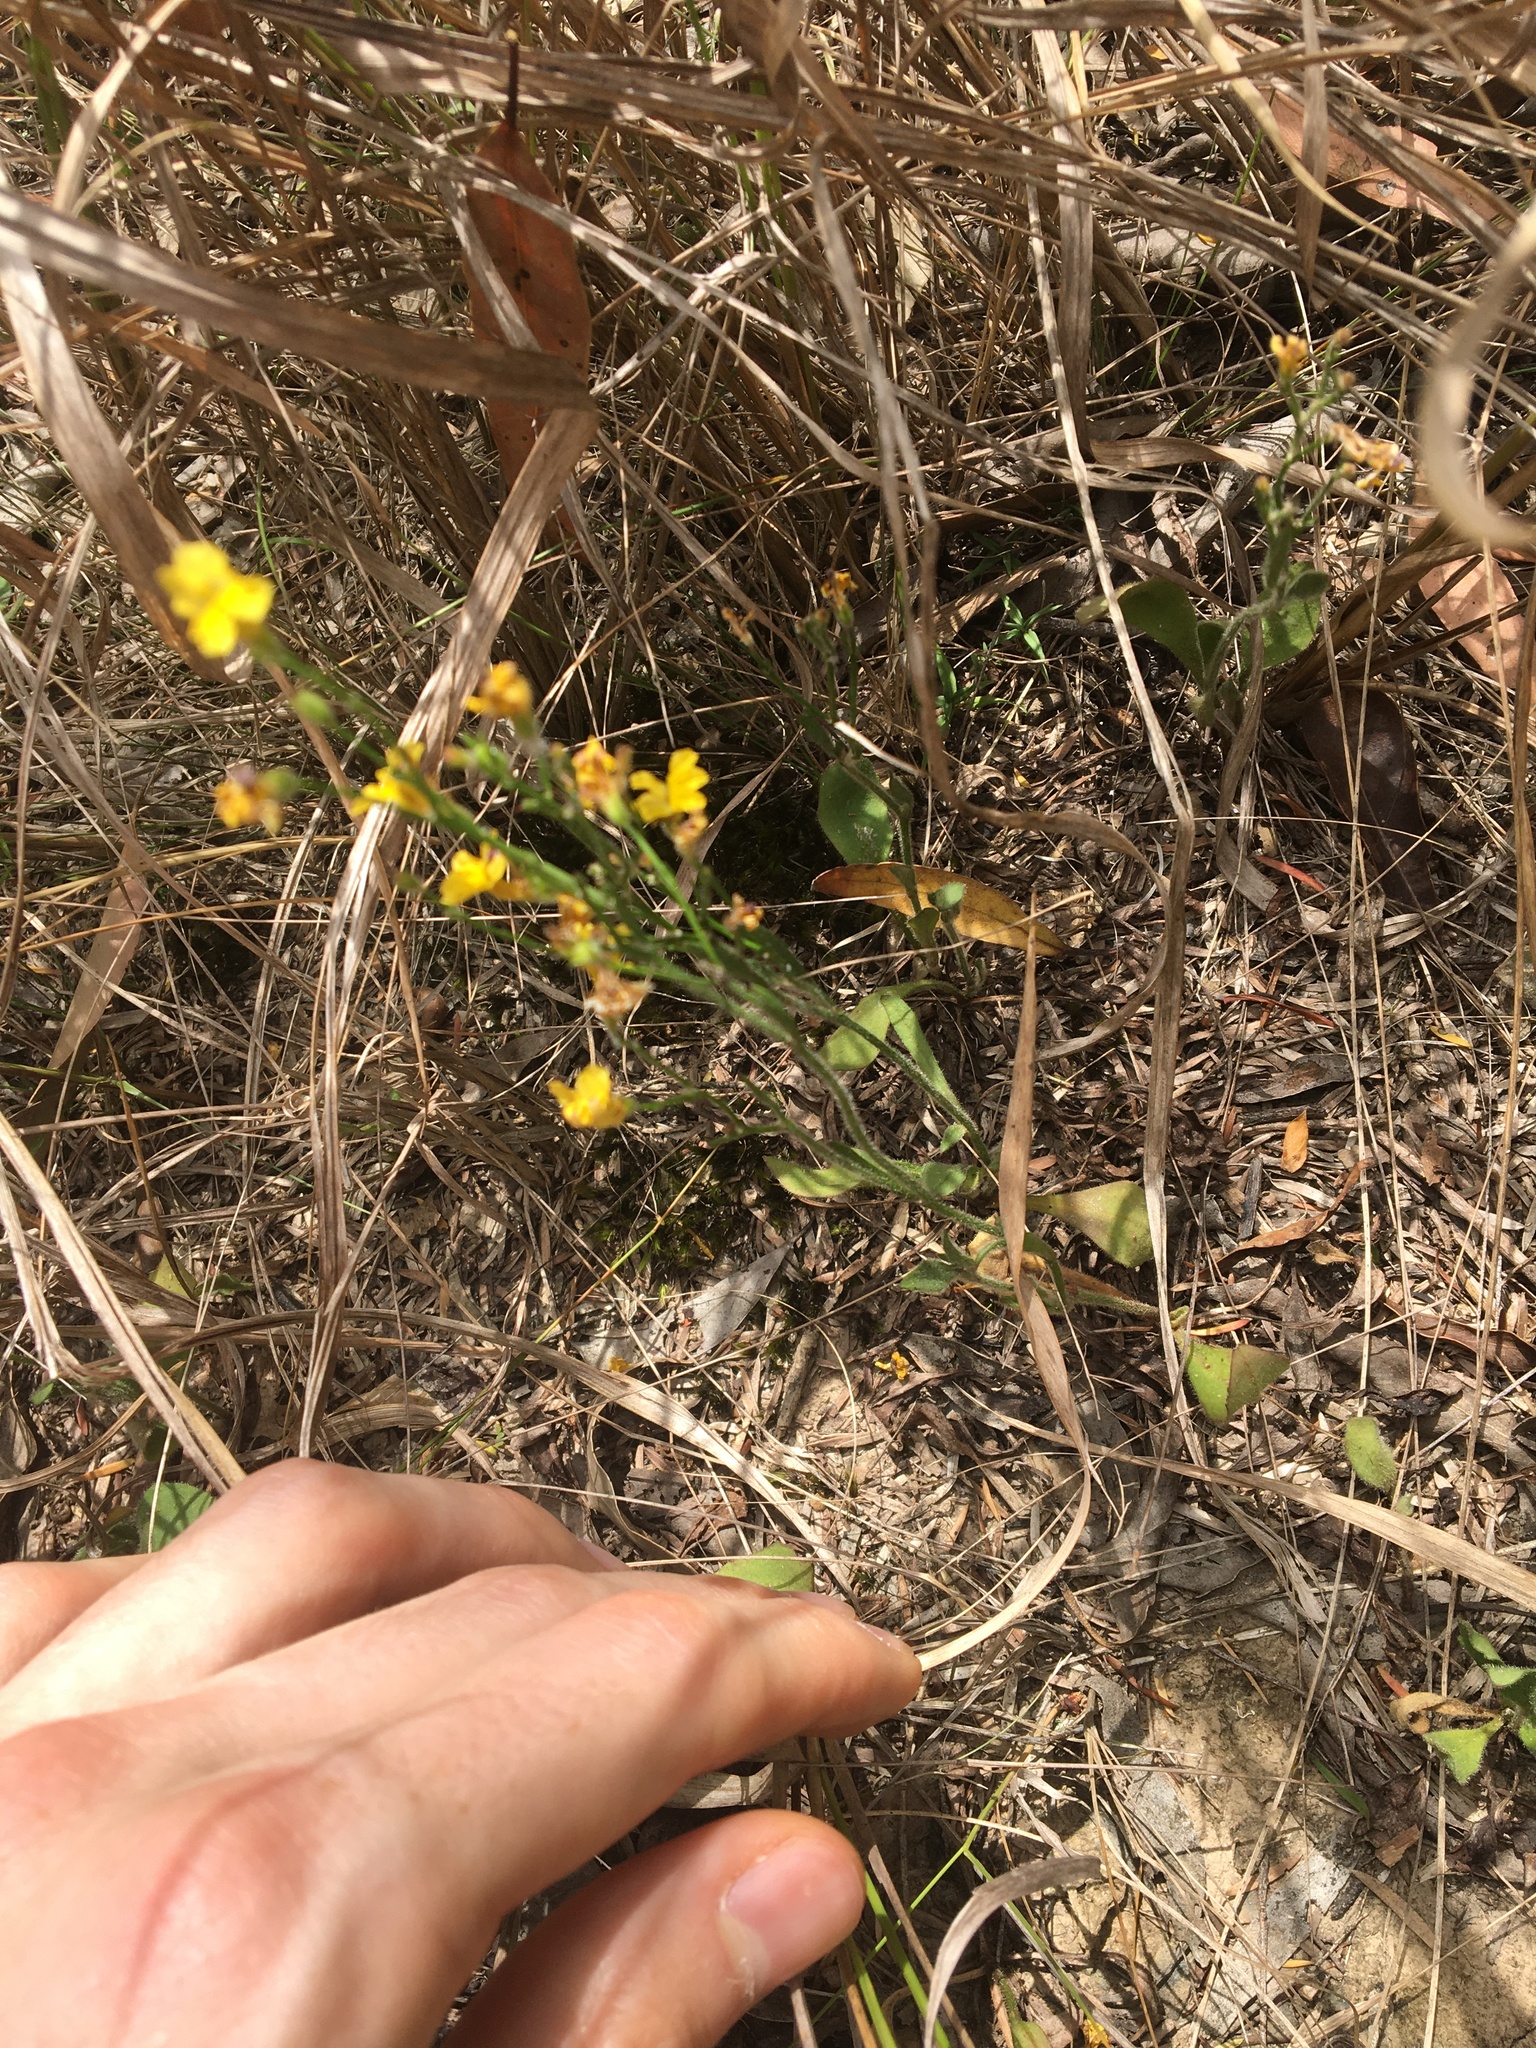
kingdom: Plantae
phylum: Tracheophyta
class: Magnoliopsida
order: Asterales
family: Goodeniaceae
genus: Goodenia
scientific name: Goodenia paniculata
